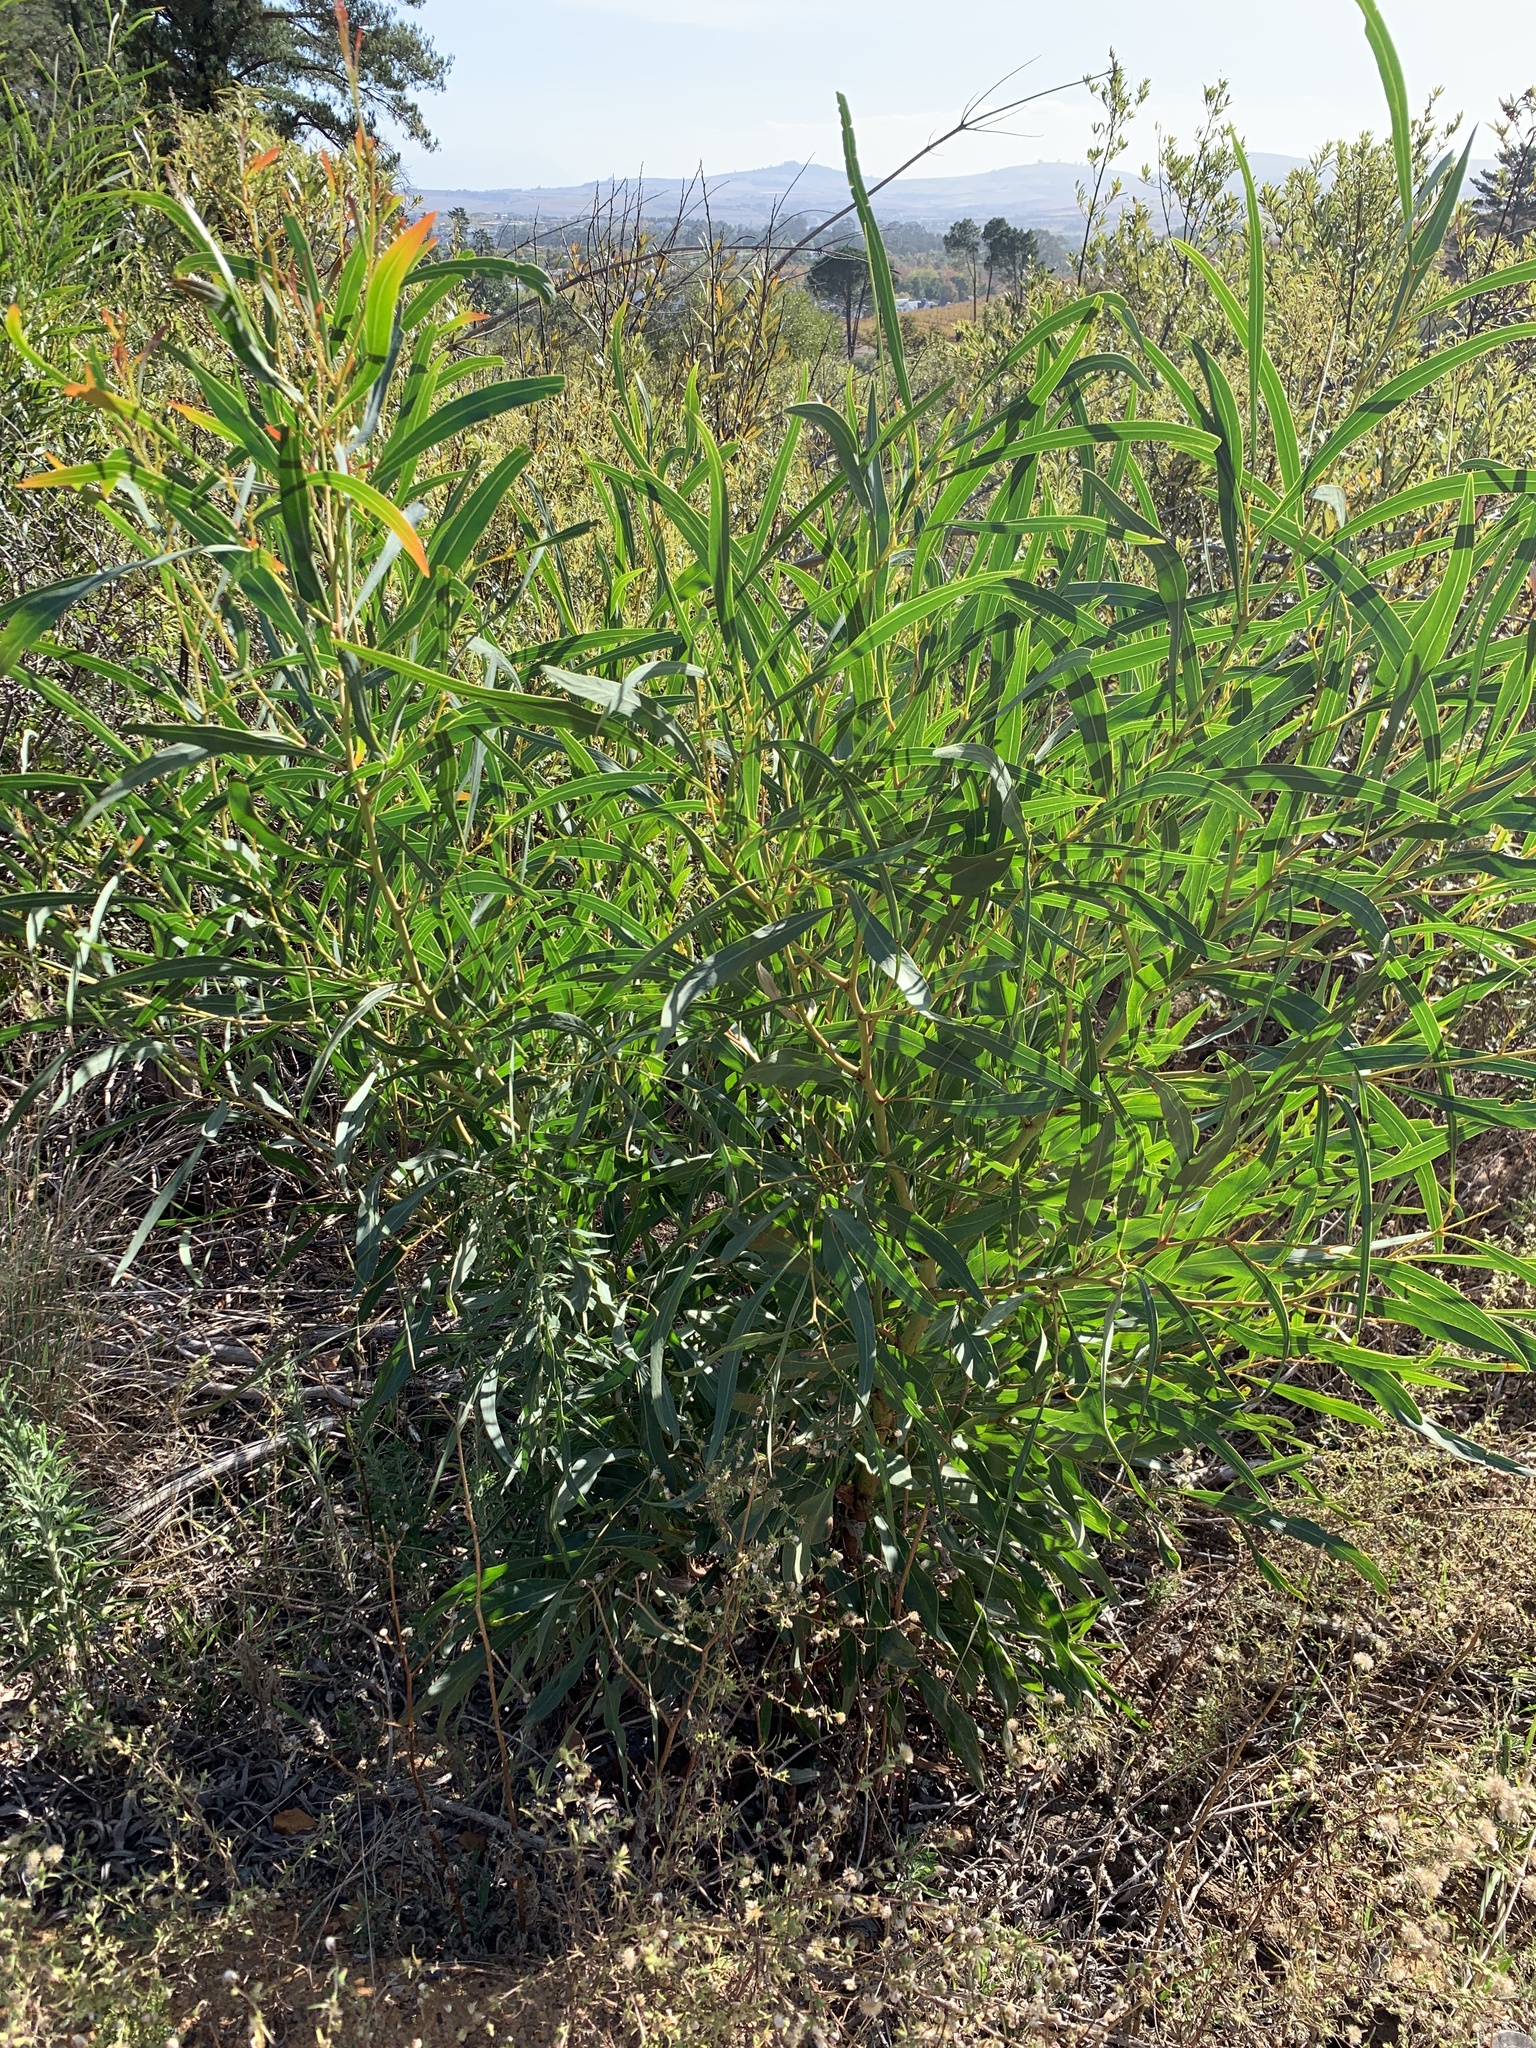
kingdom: Plantae
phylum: Tracheophyta
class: Magnoliopsida
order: Fabales
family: Fabaceae
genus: Acacia
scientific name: Acacia saligna
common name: Orange wattle
